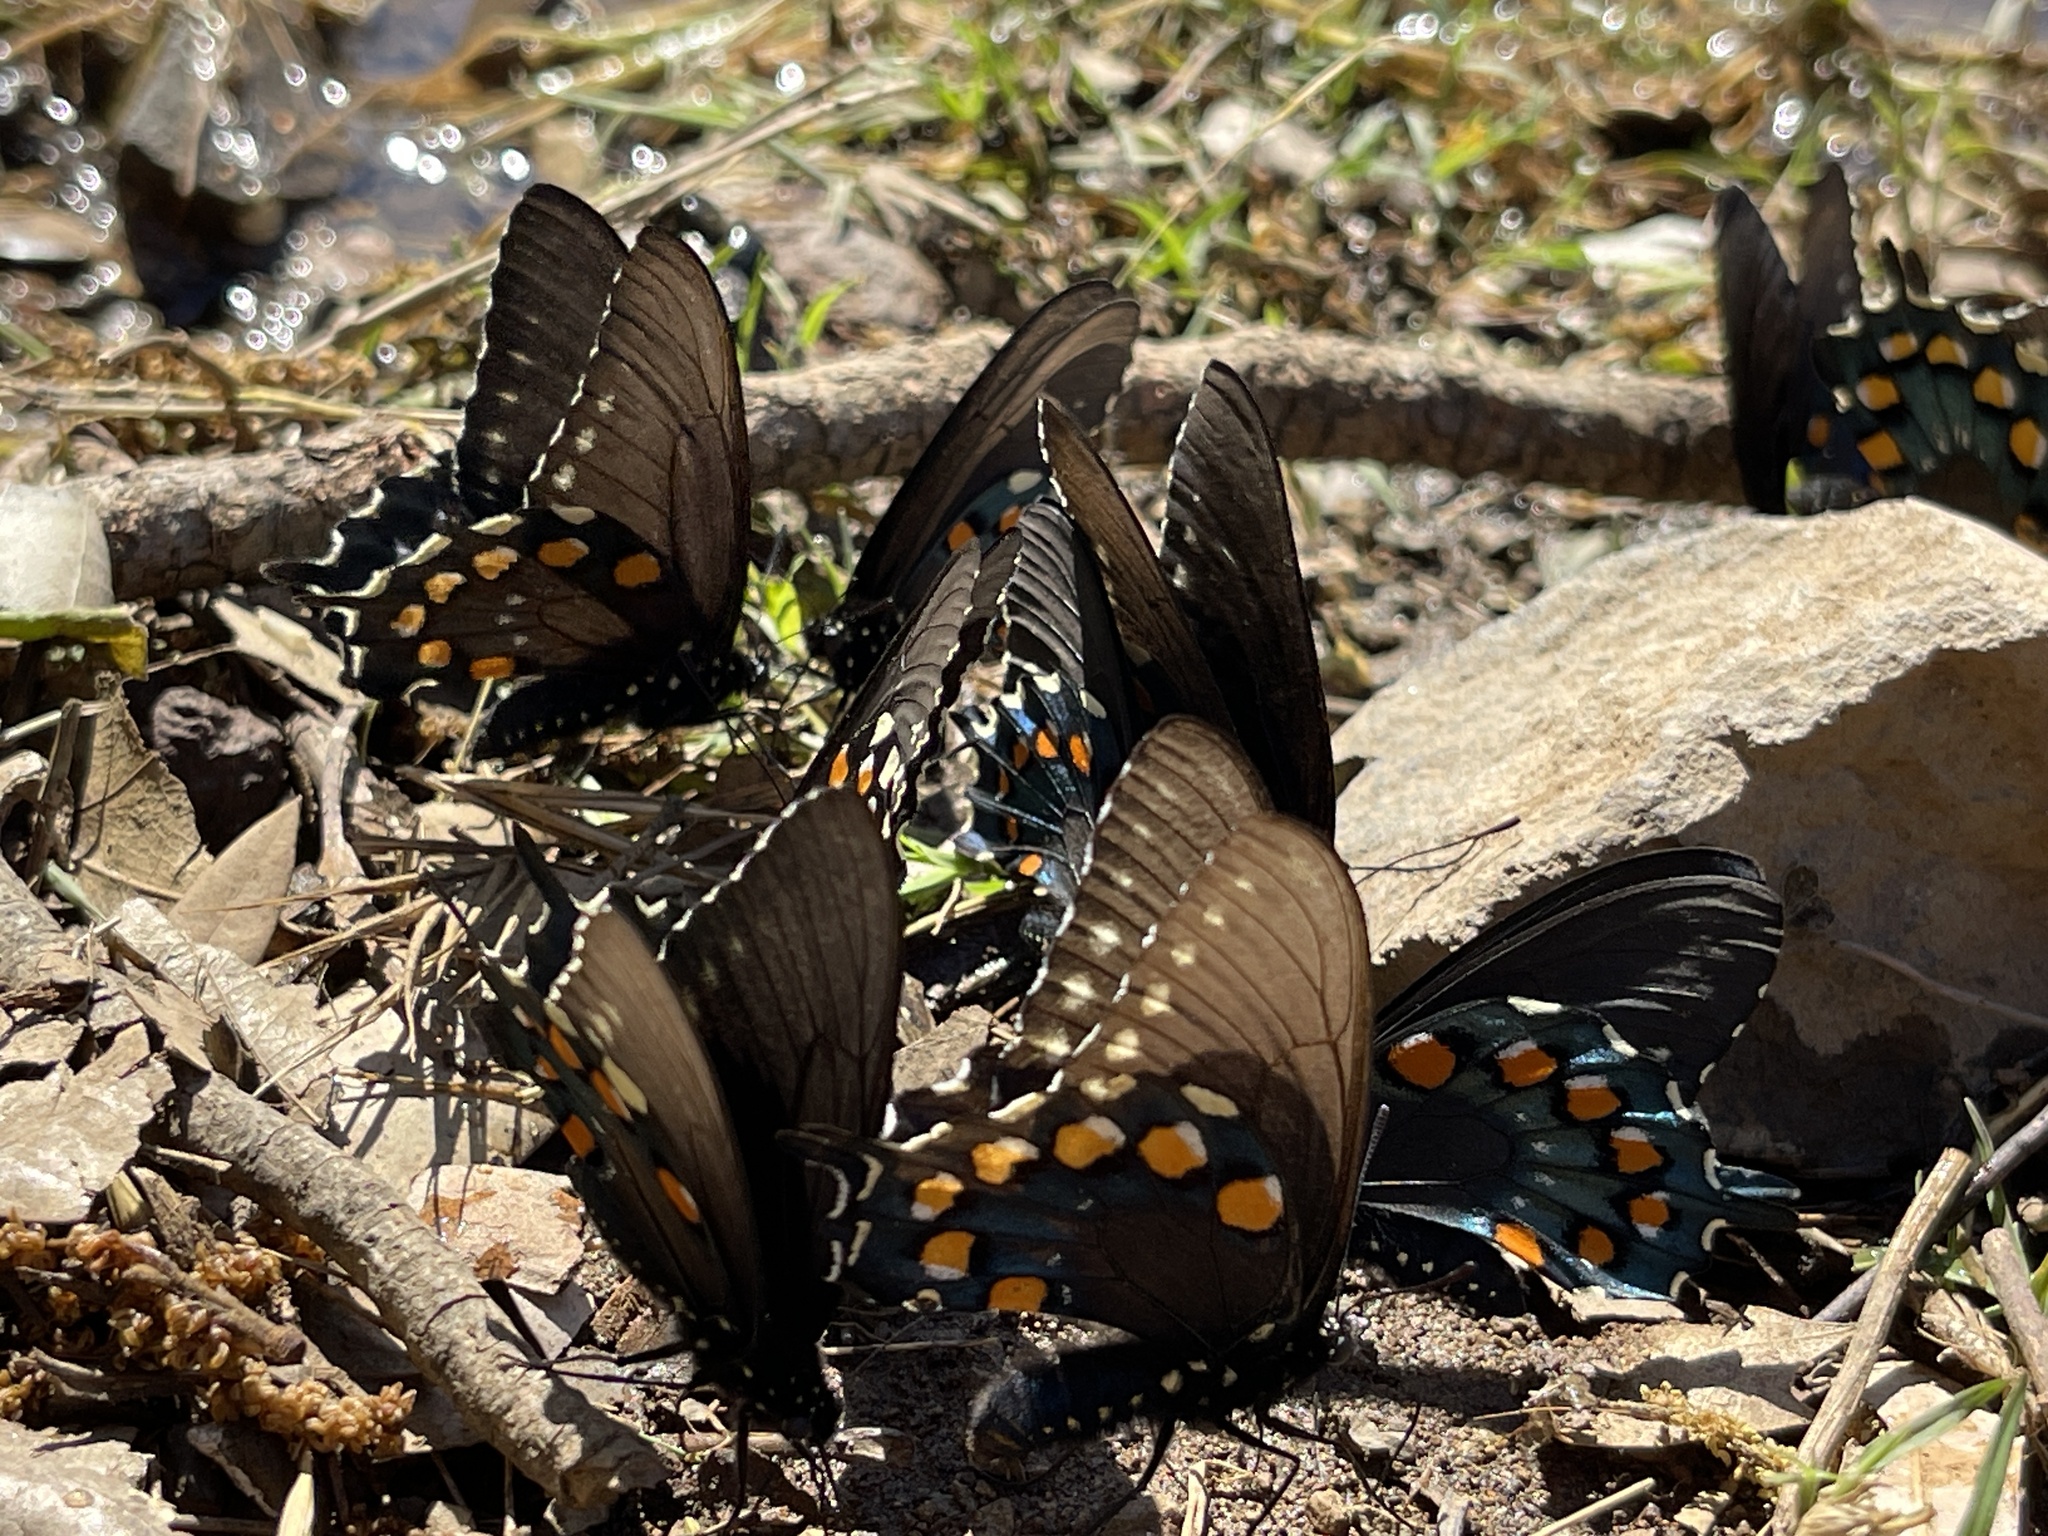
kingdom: Animalia
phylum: Arthropoda
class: Insecta
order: Lepidoptera
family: Papilionidae
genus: Battus
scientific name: Battus philenor
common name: Pipevine swallowtail
